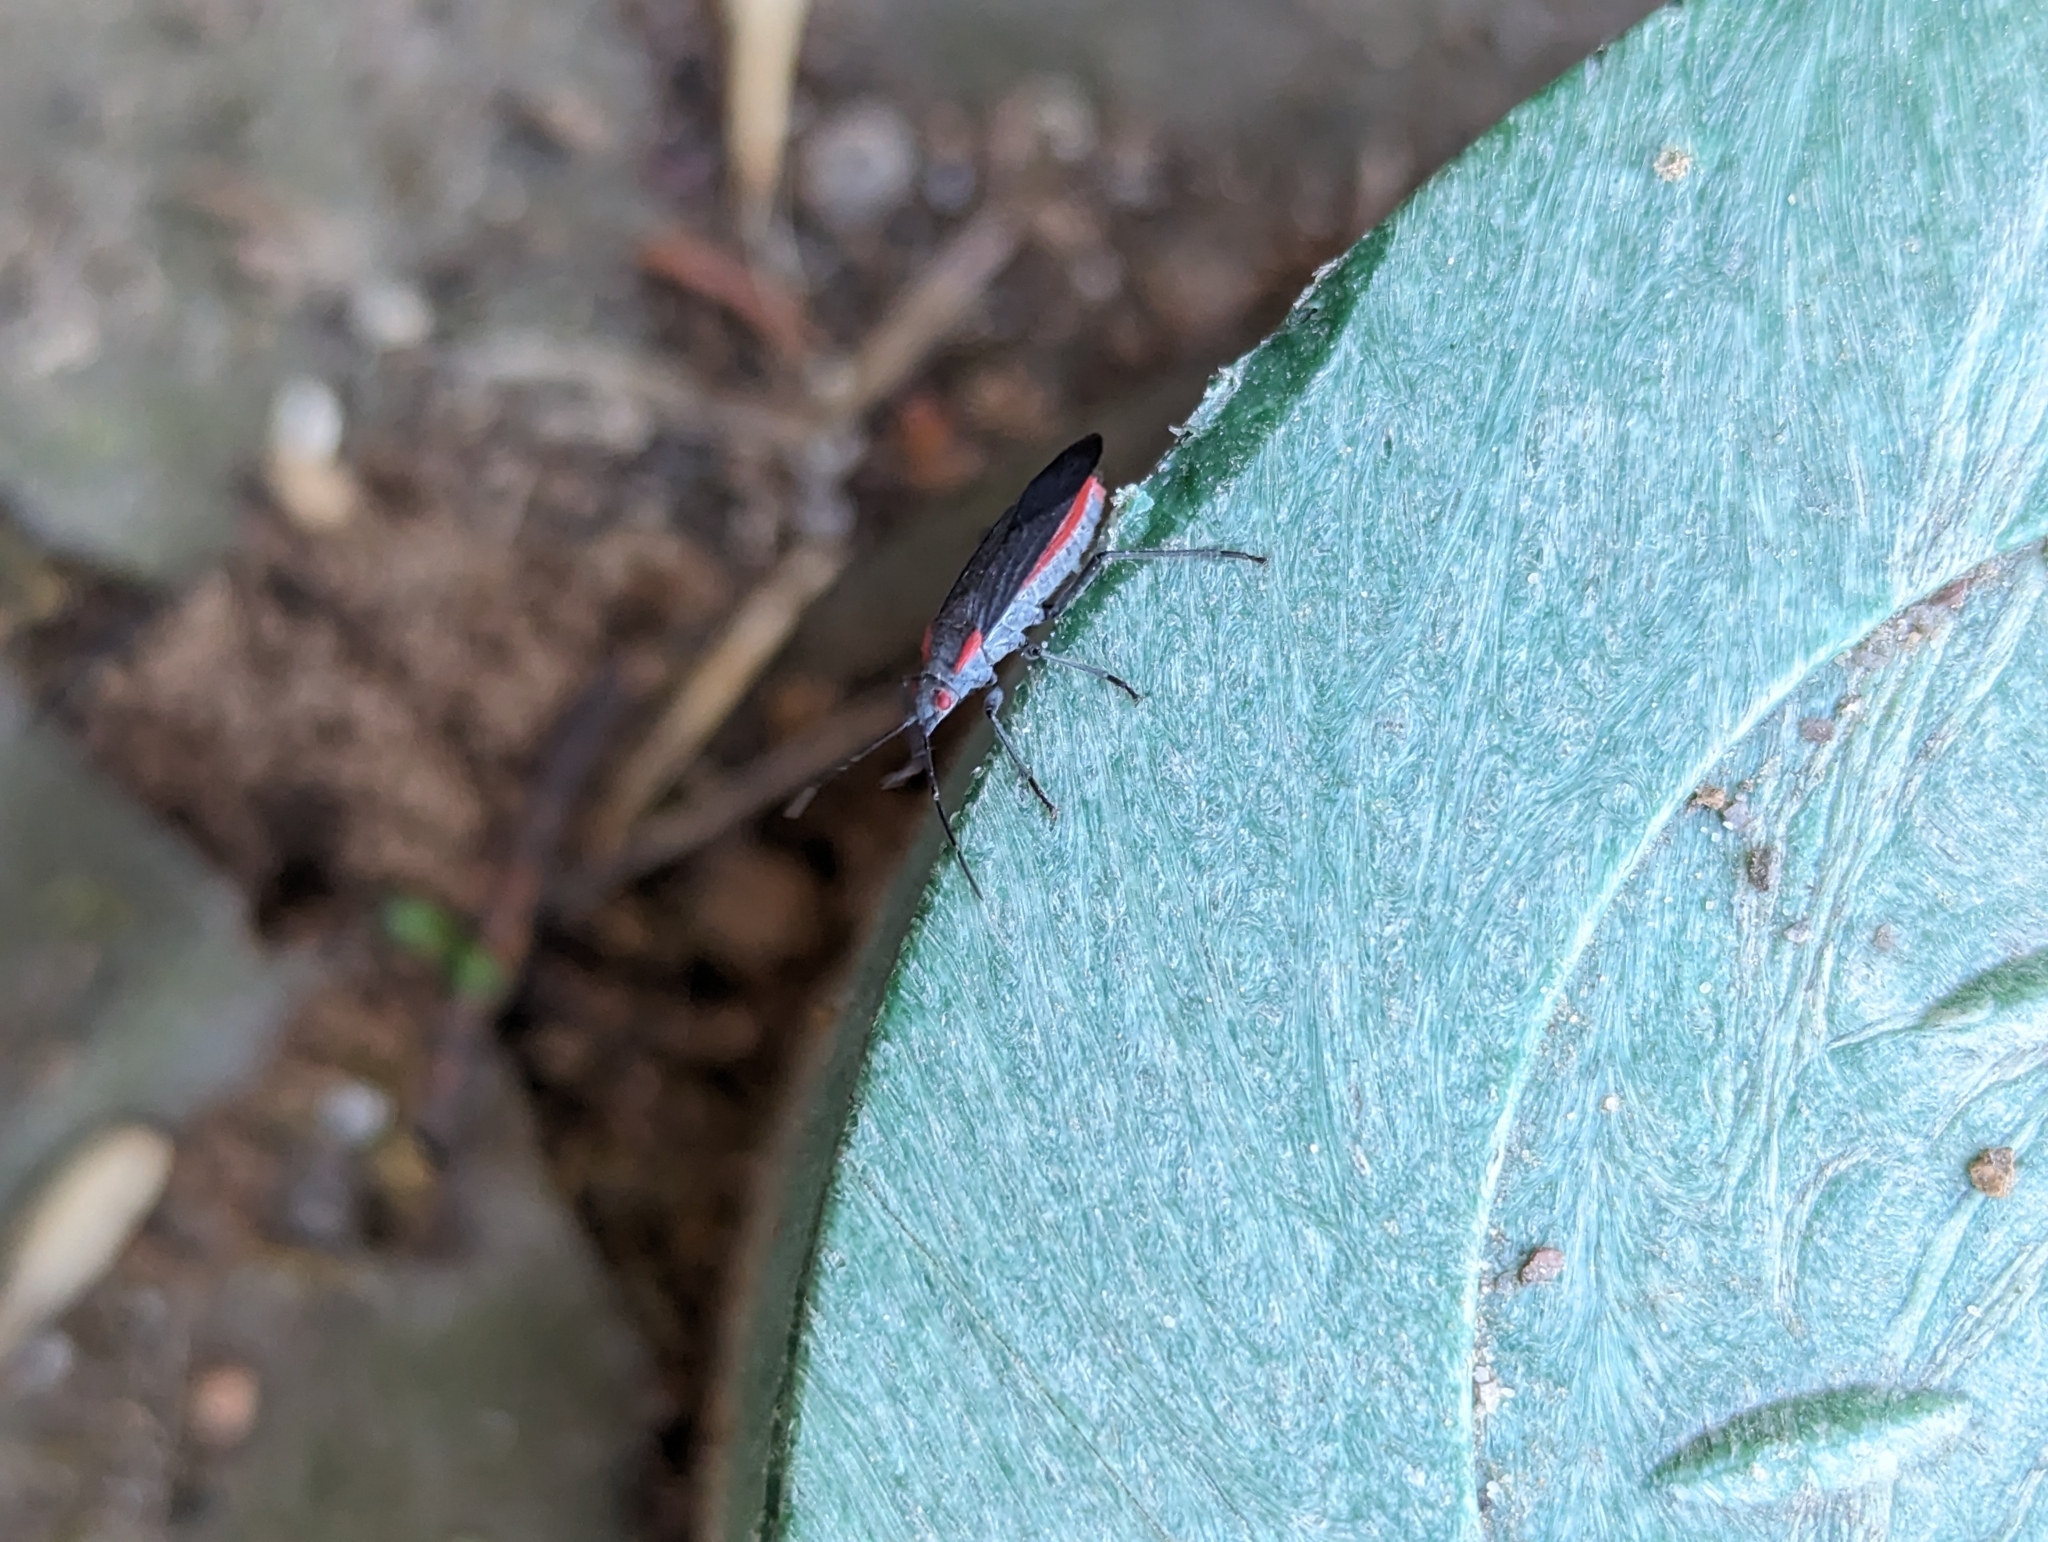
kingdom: Animalia
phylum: Arthropoda
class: Insecta
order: Hemiptera
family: Rhopalidae
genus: Jadera
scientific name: Jadera haematoloma
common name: Red-shouldered bug
